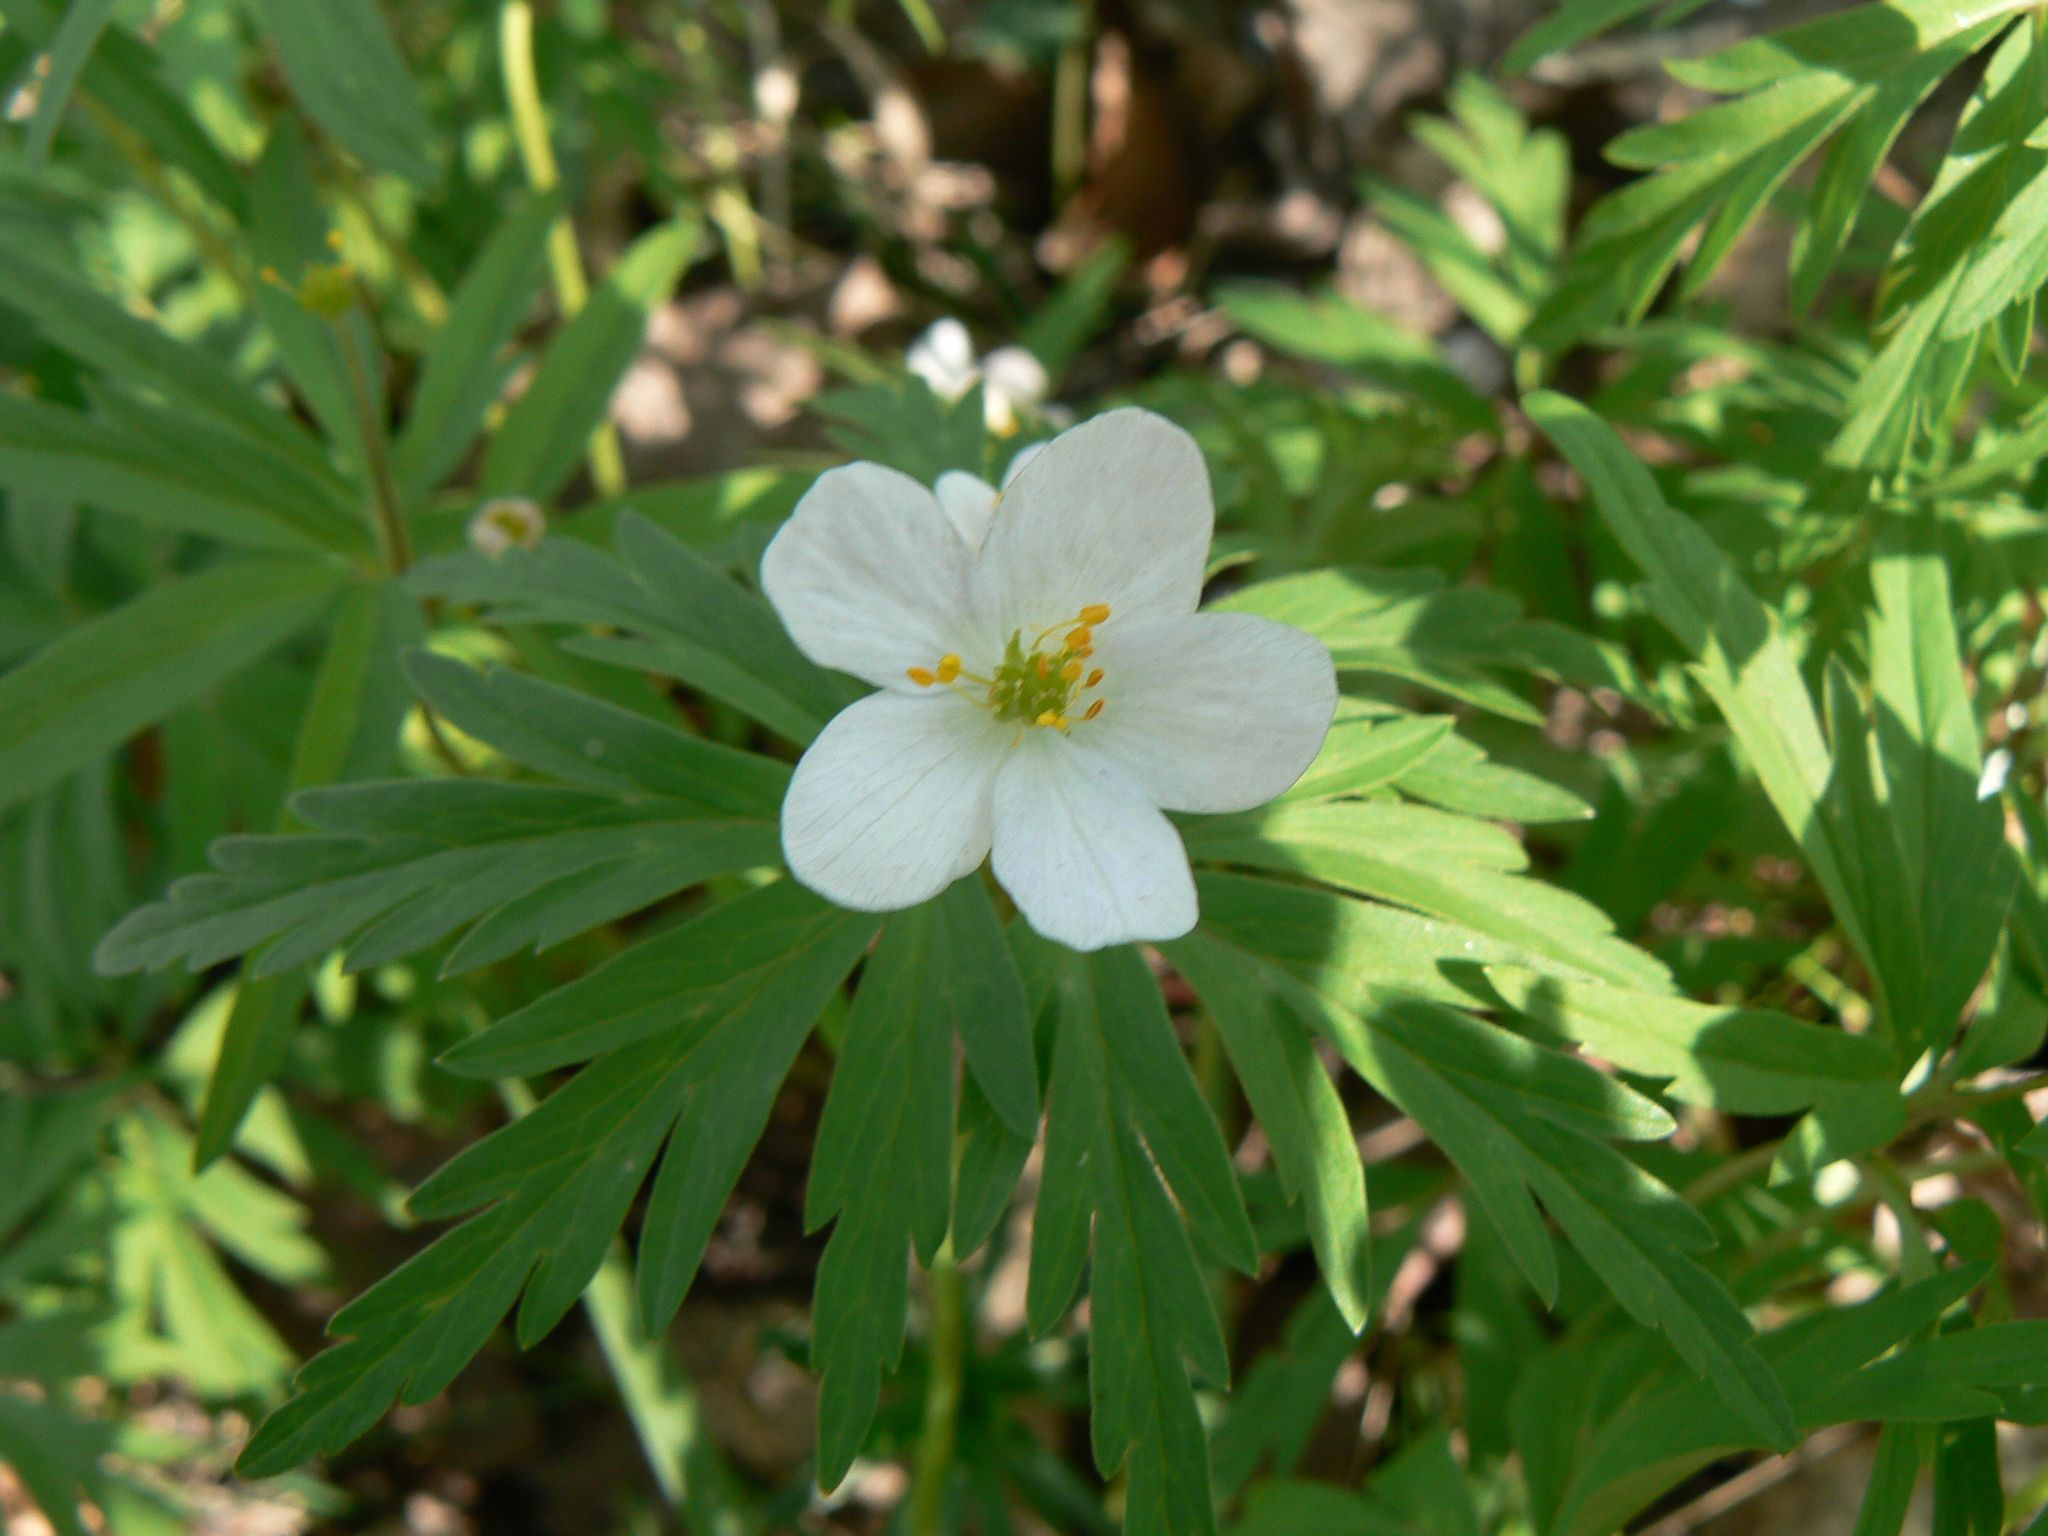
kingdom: Plantae
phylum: Tracheophyta
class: Magnoliopsida
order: Ranunculales
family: Ranunculaceae
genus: Anemone
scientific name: Anemone caerulea
